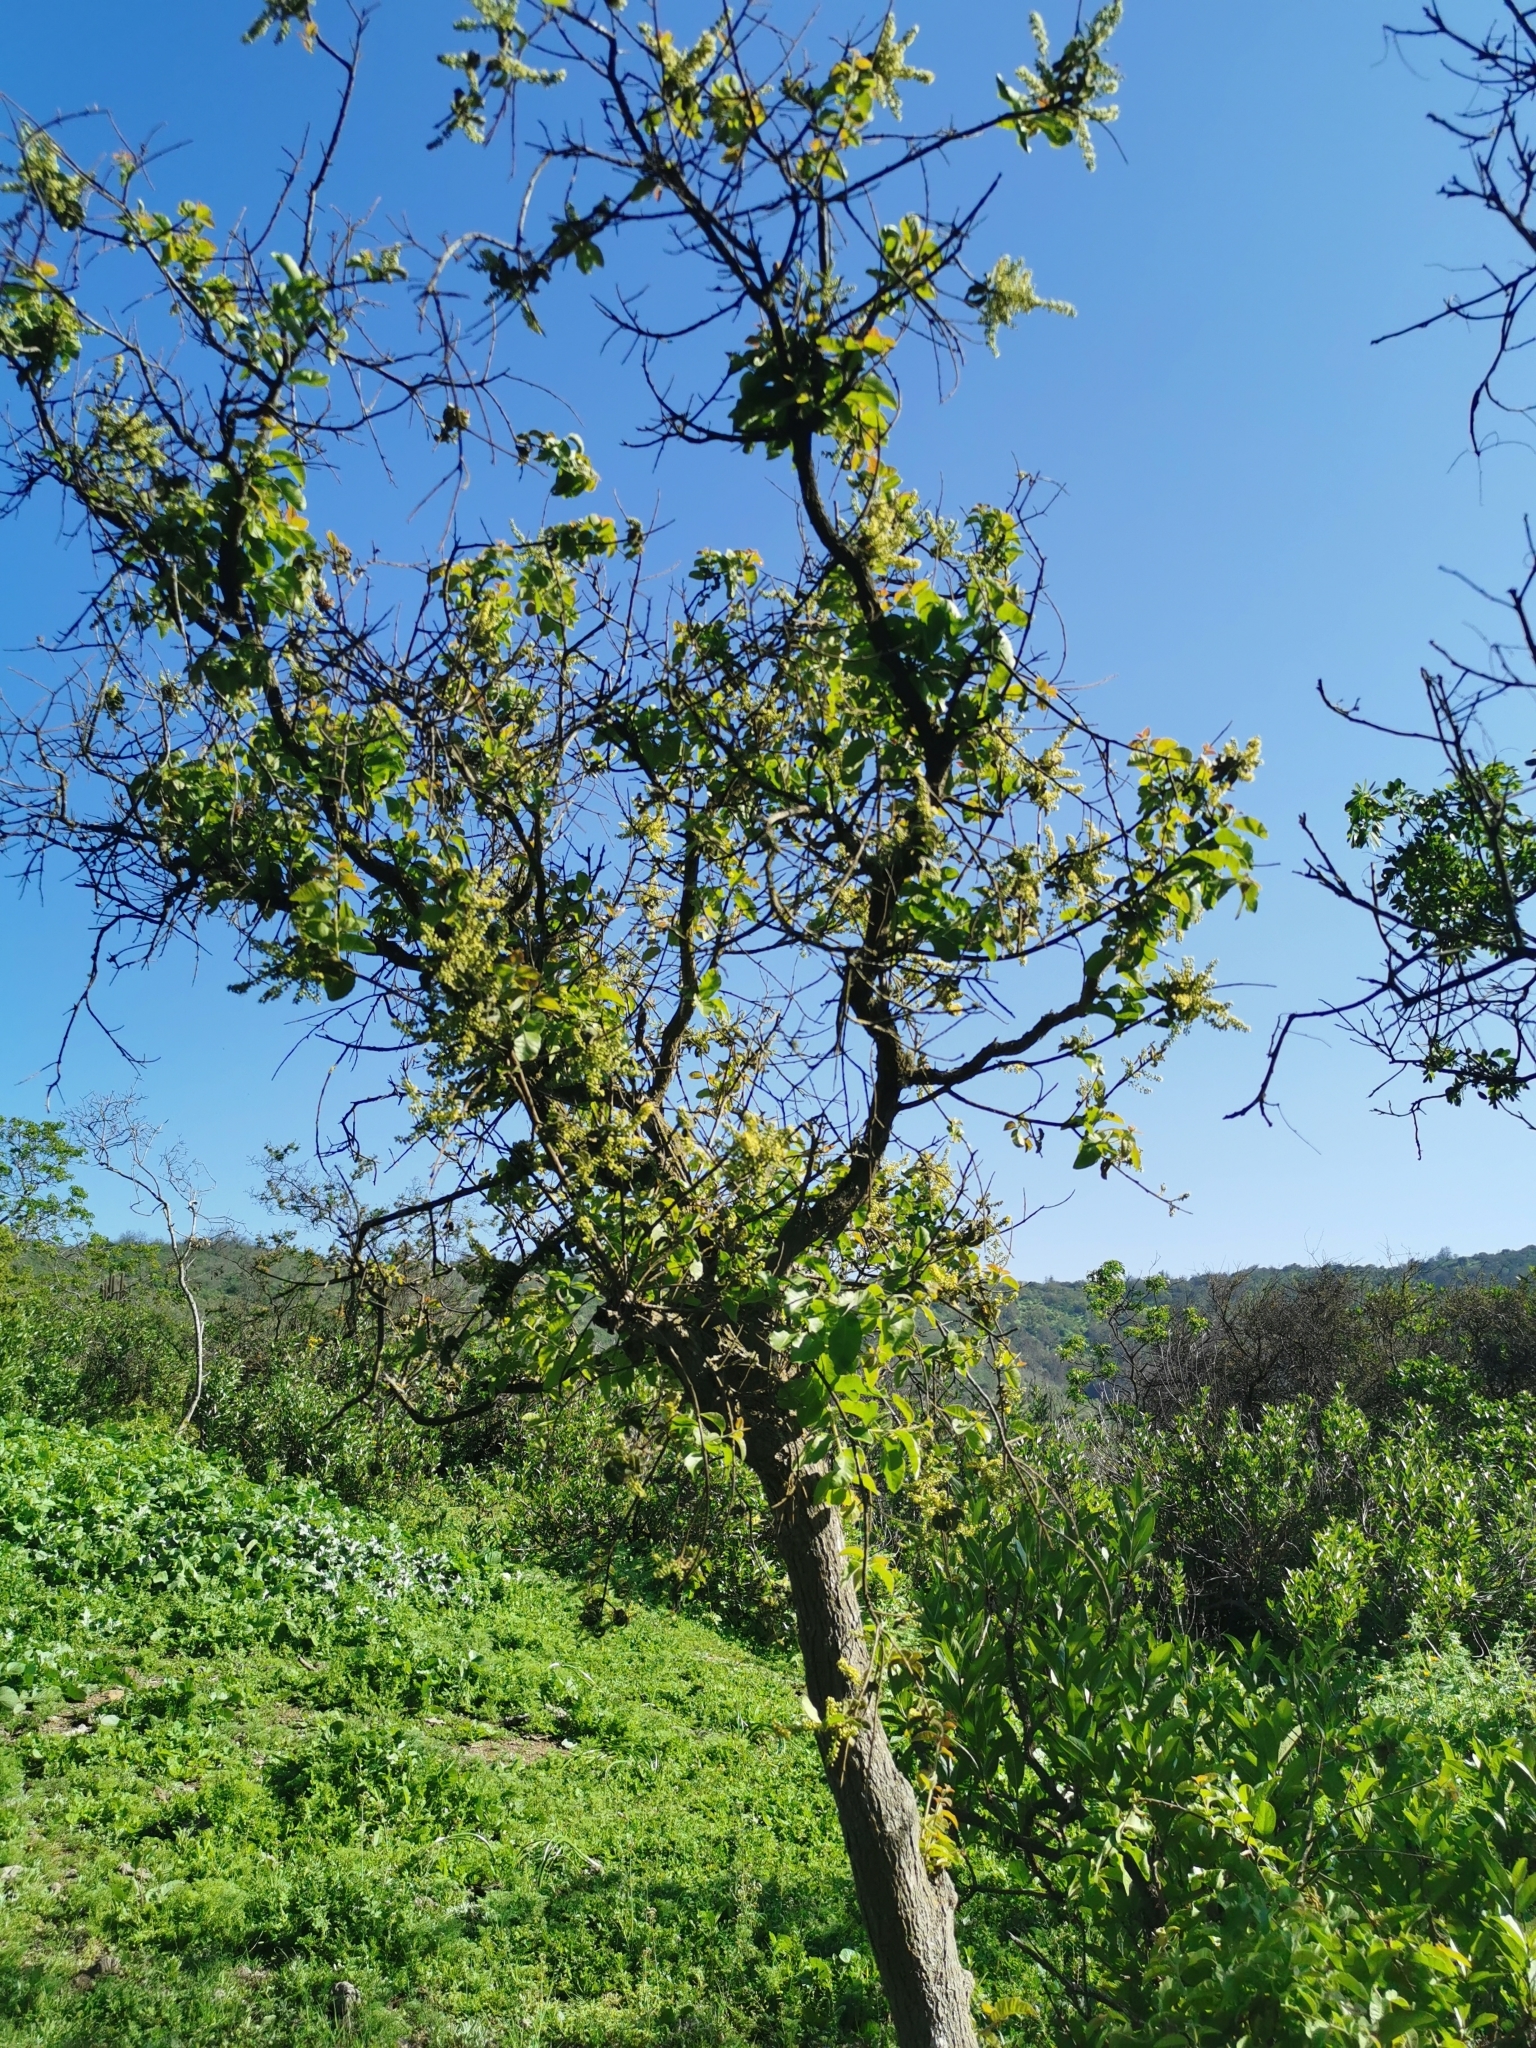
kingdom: Plantae
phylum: Tracheophyta
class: Magnoliopsida
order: Sapindales
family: Anacardiaceae
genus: Schinus
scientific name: Schinus latifolia
